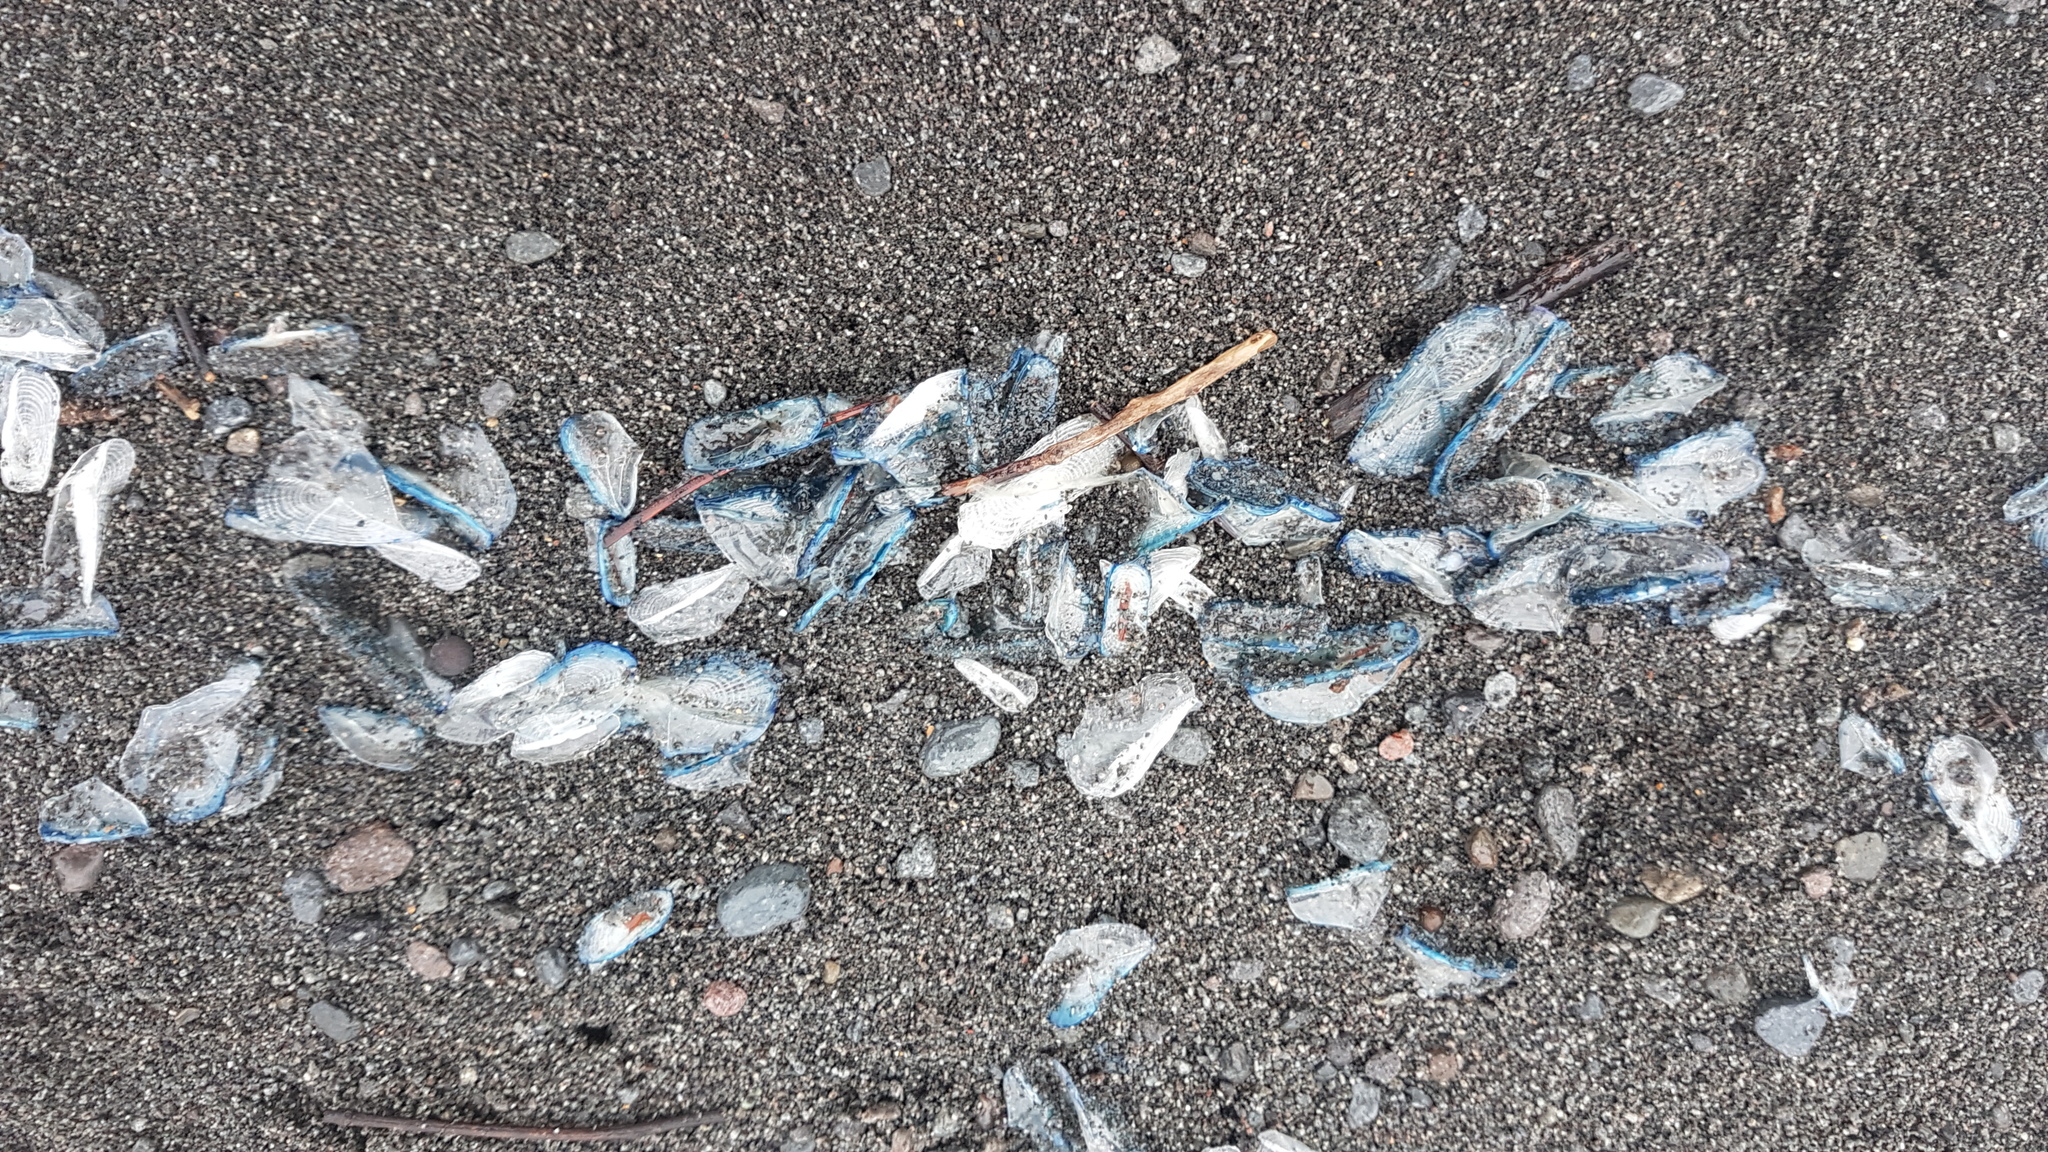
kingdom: Animalia
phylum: Cnidaria
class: Hydrozoa
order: Anthoathecata
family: Porpitidae
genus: Velella
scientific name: Velella velella
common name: By-the-wind-sailor
